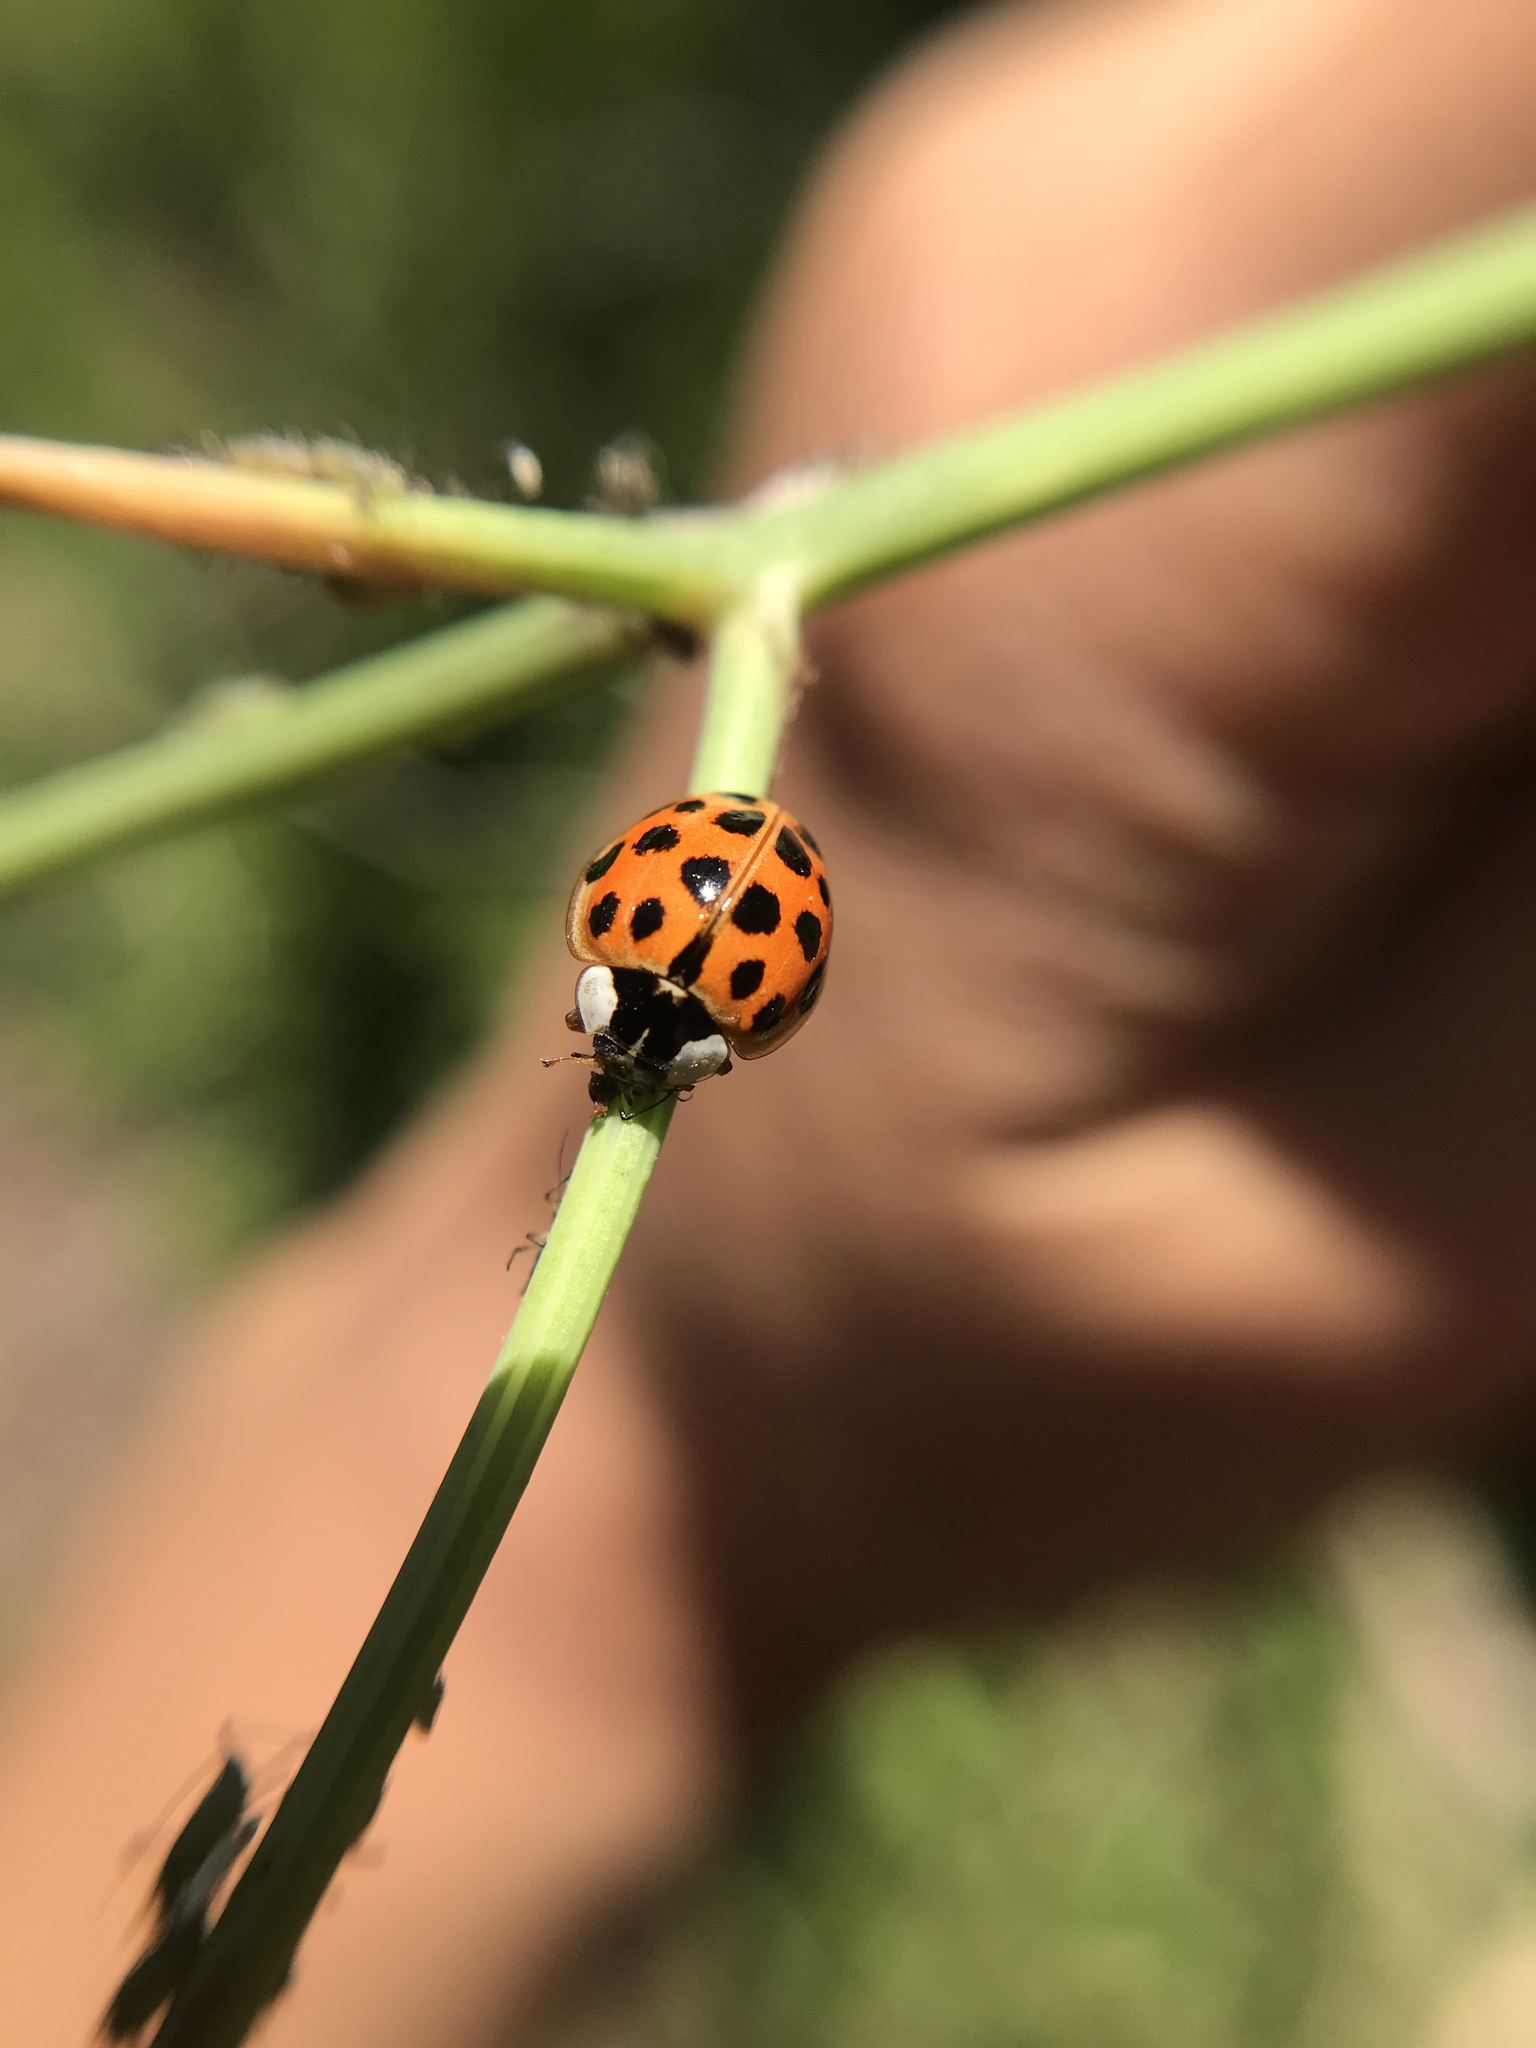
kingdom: Animalia
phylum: Arthropoda
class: Insecta
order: Coleoptera
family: Coccinellidae
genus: Harmonia
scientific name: Harmonia axyridis
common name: Harlequin ladybird
